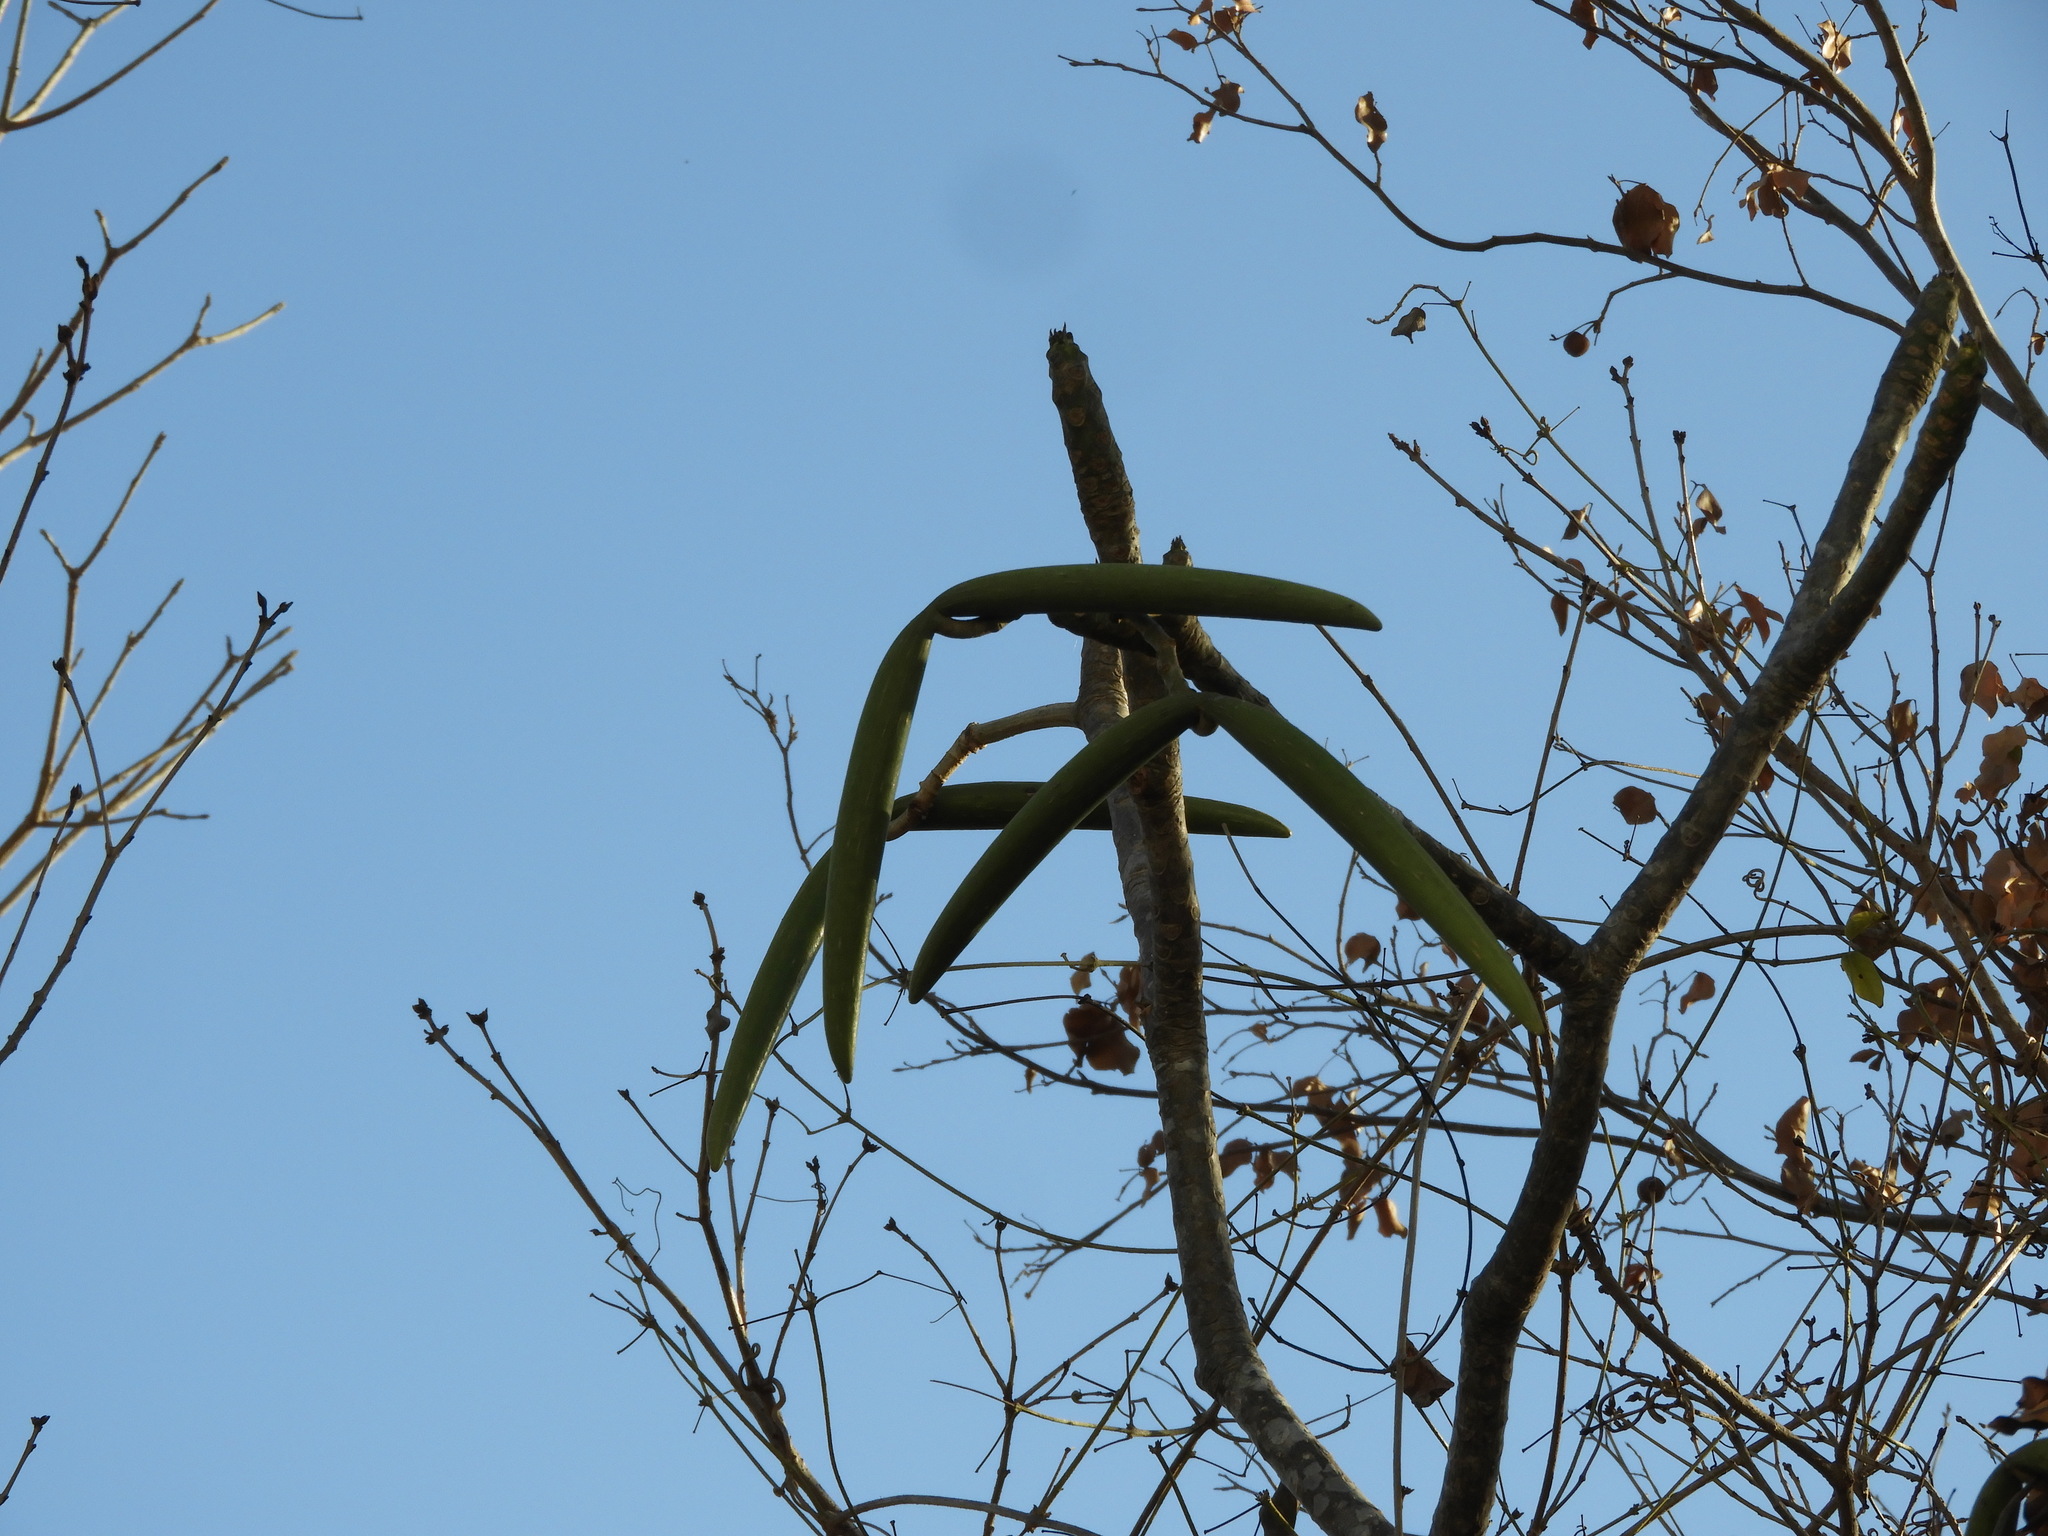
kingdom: Plantae
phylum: Tracheophyta
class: Magnoliopsida
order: Gentianales
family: Apocynaceae
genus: Plumeria
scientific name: Plumeria rubra
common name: Pagoda-tree
